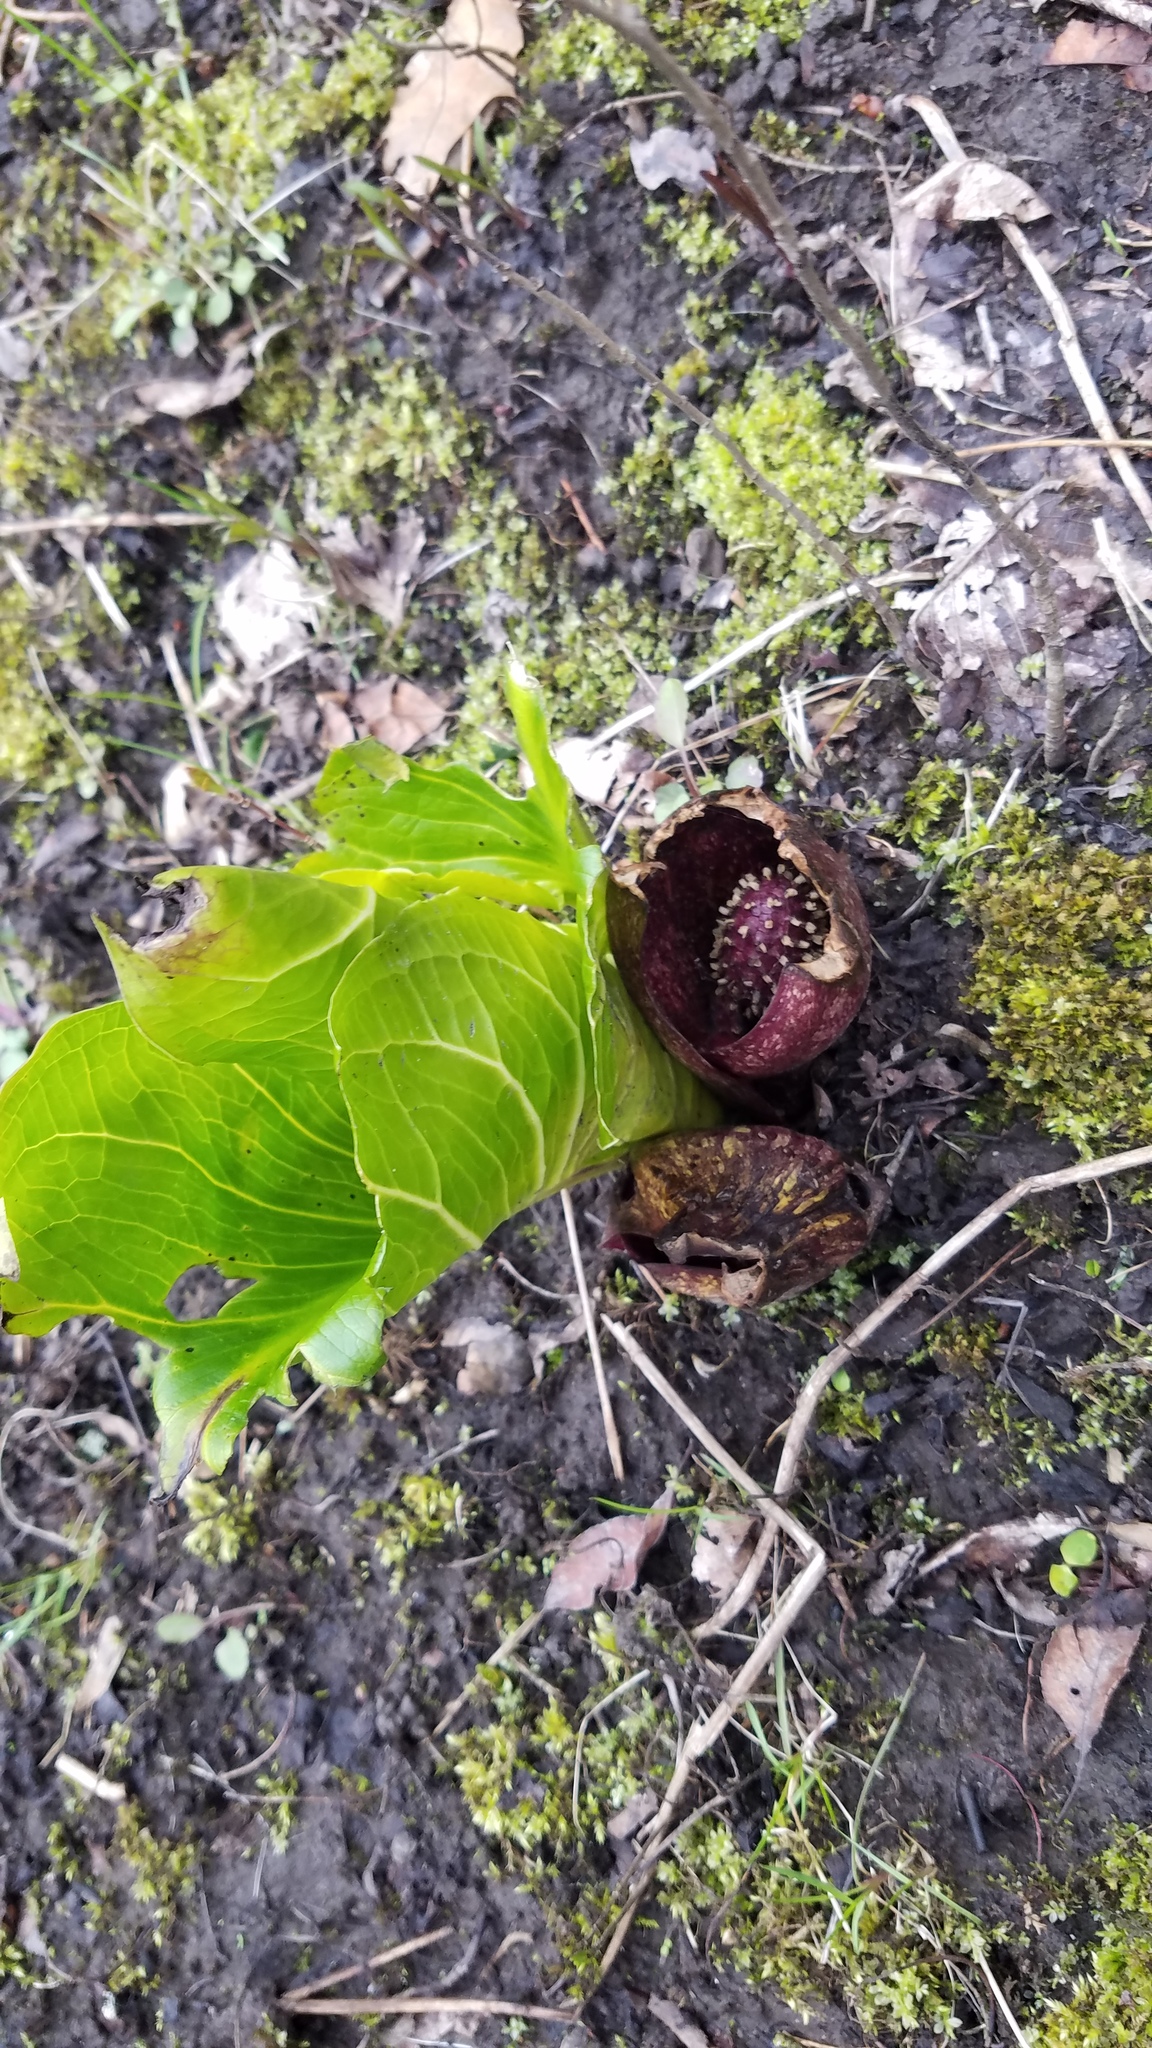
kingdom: Plantae
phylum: Tracheophyta
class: Liliopsida
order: Alismatales
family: Araceae
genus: Symplocarpus
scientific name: Symplocarpus foetidus
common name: Eastern skunk cabbage
